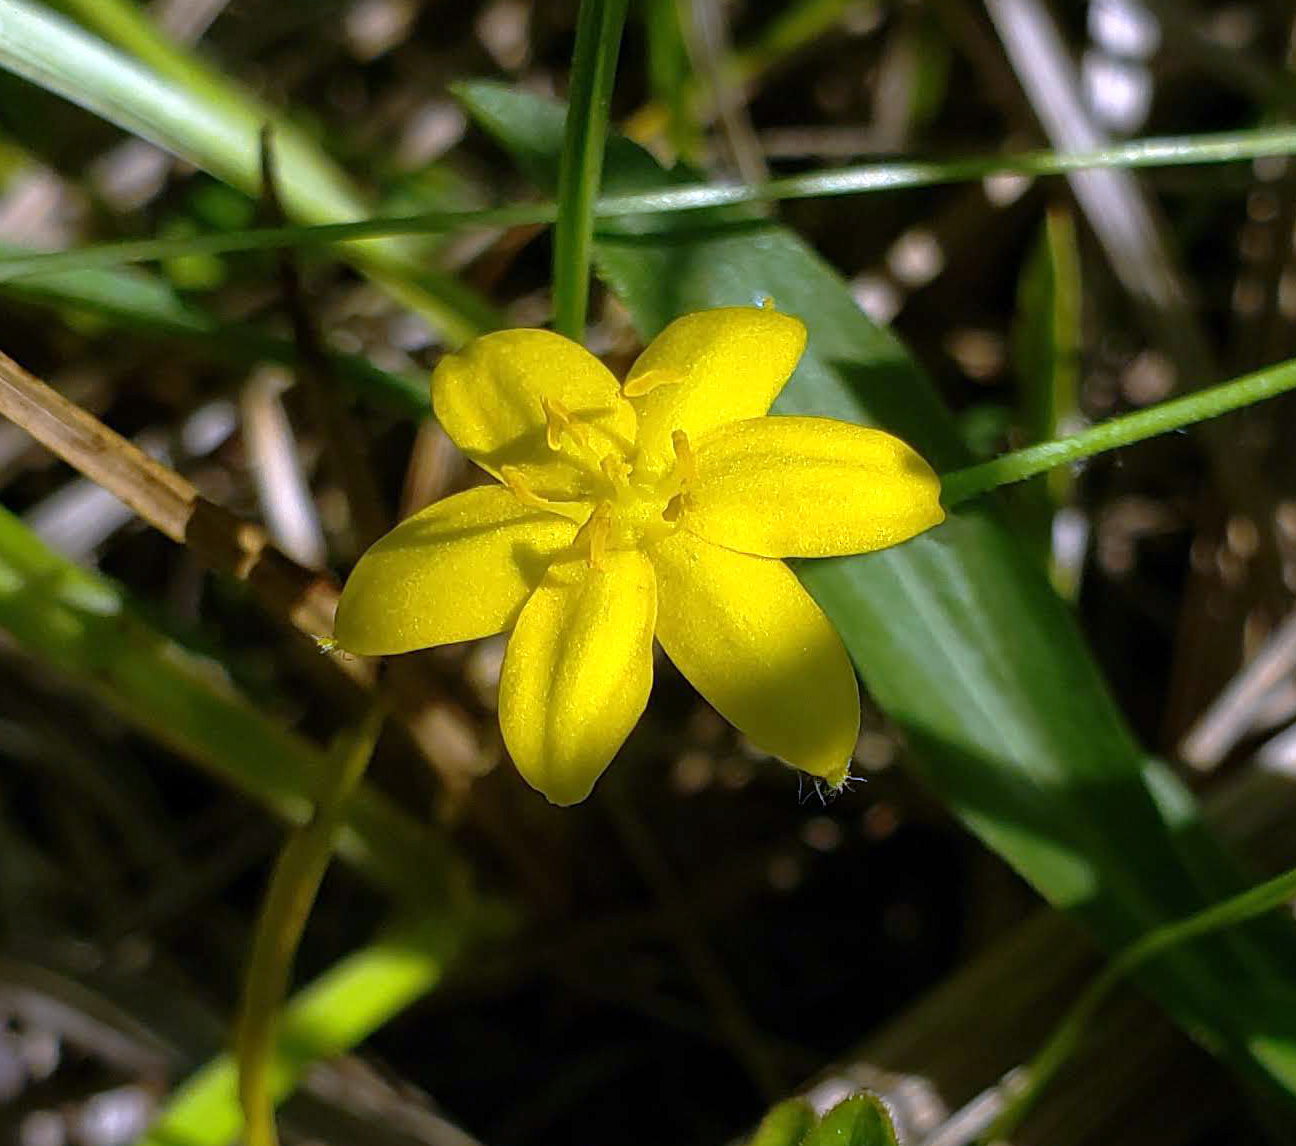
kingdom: Plantae
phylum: Tracheophyta
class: Liliopsida
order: Asparagales
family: Hypoxidaceae
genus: Hypoxis
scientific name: Hypoxis hirsuta
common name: Common goldstar
